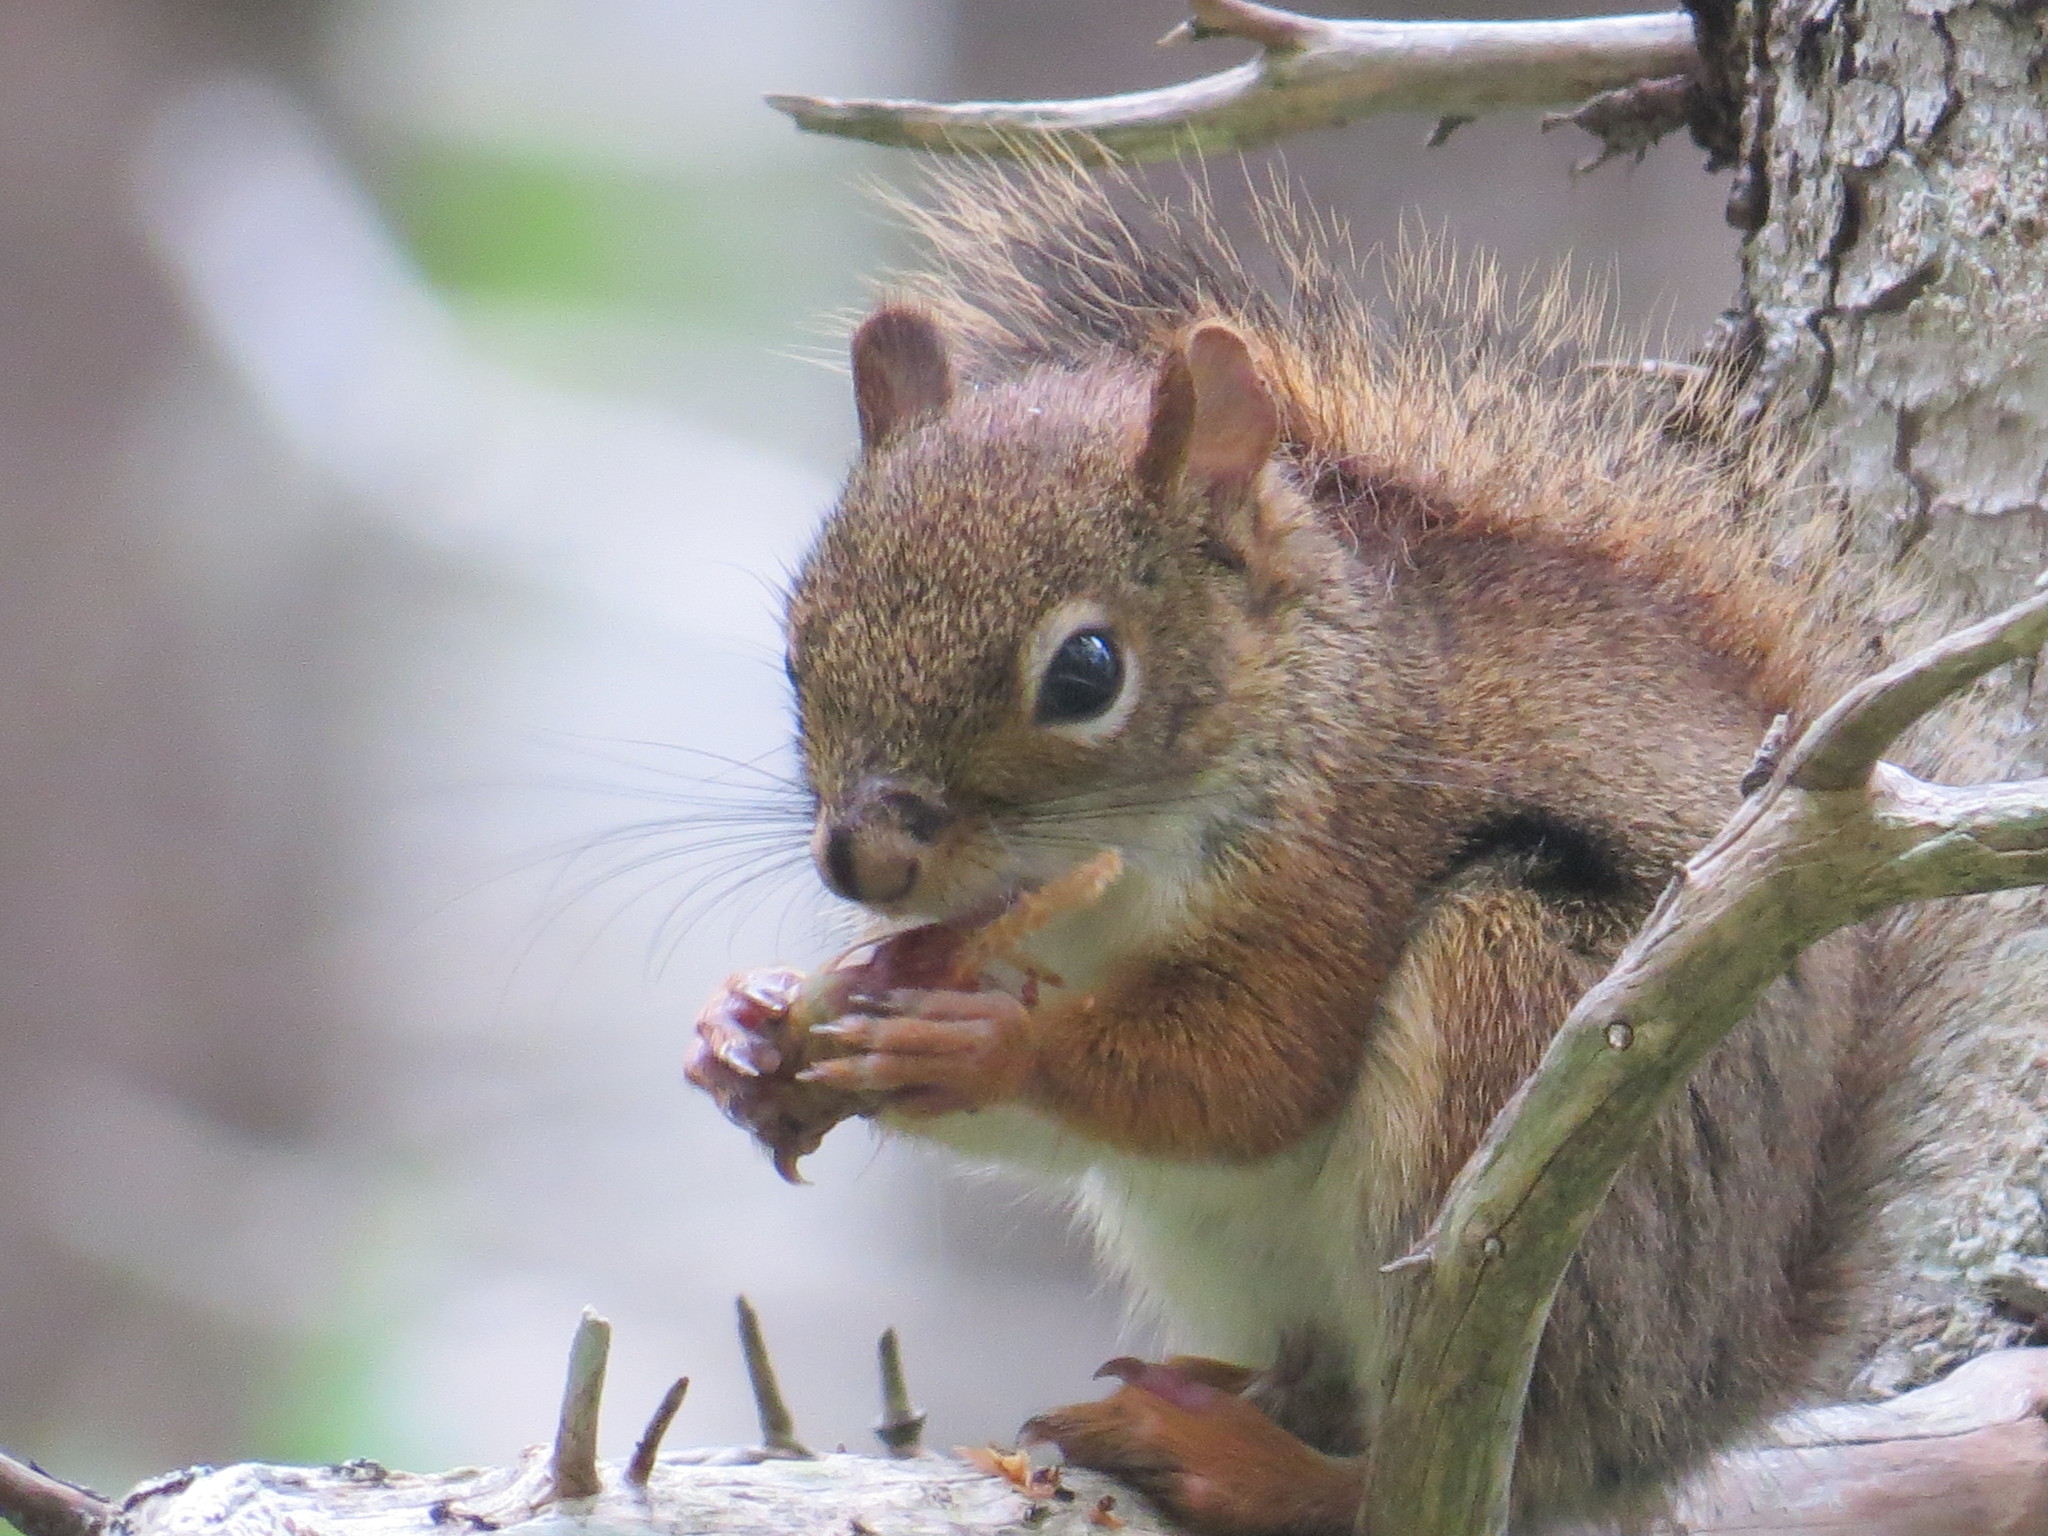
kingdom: Animalia
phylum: Chordata
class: Mammalia
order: Rodentia
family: Sciuridae
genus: Tamiasciurus
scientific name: Tamiasciurus hudsonicus
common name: Red squirrel
